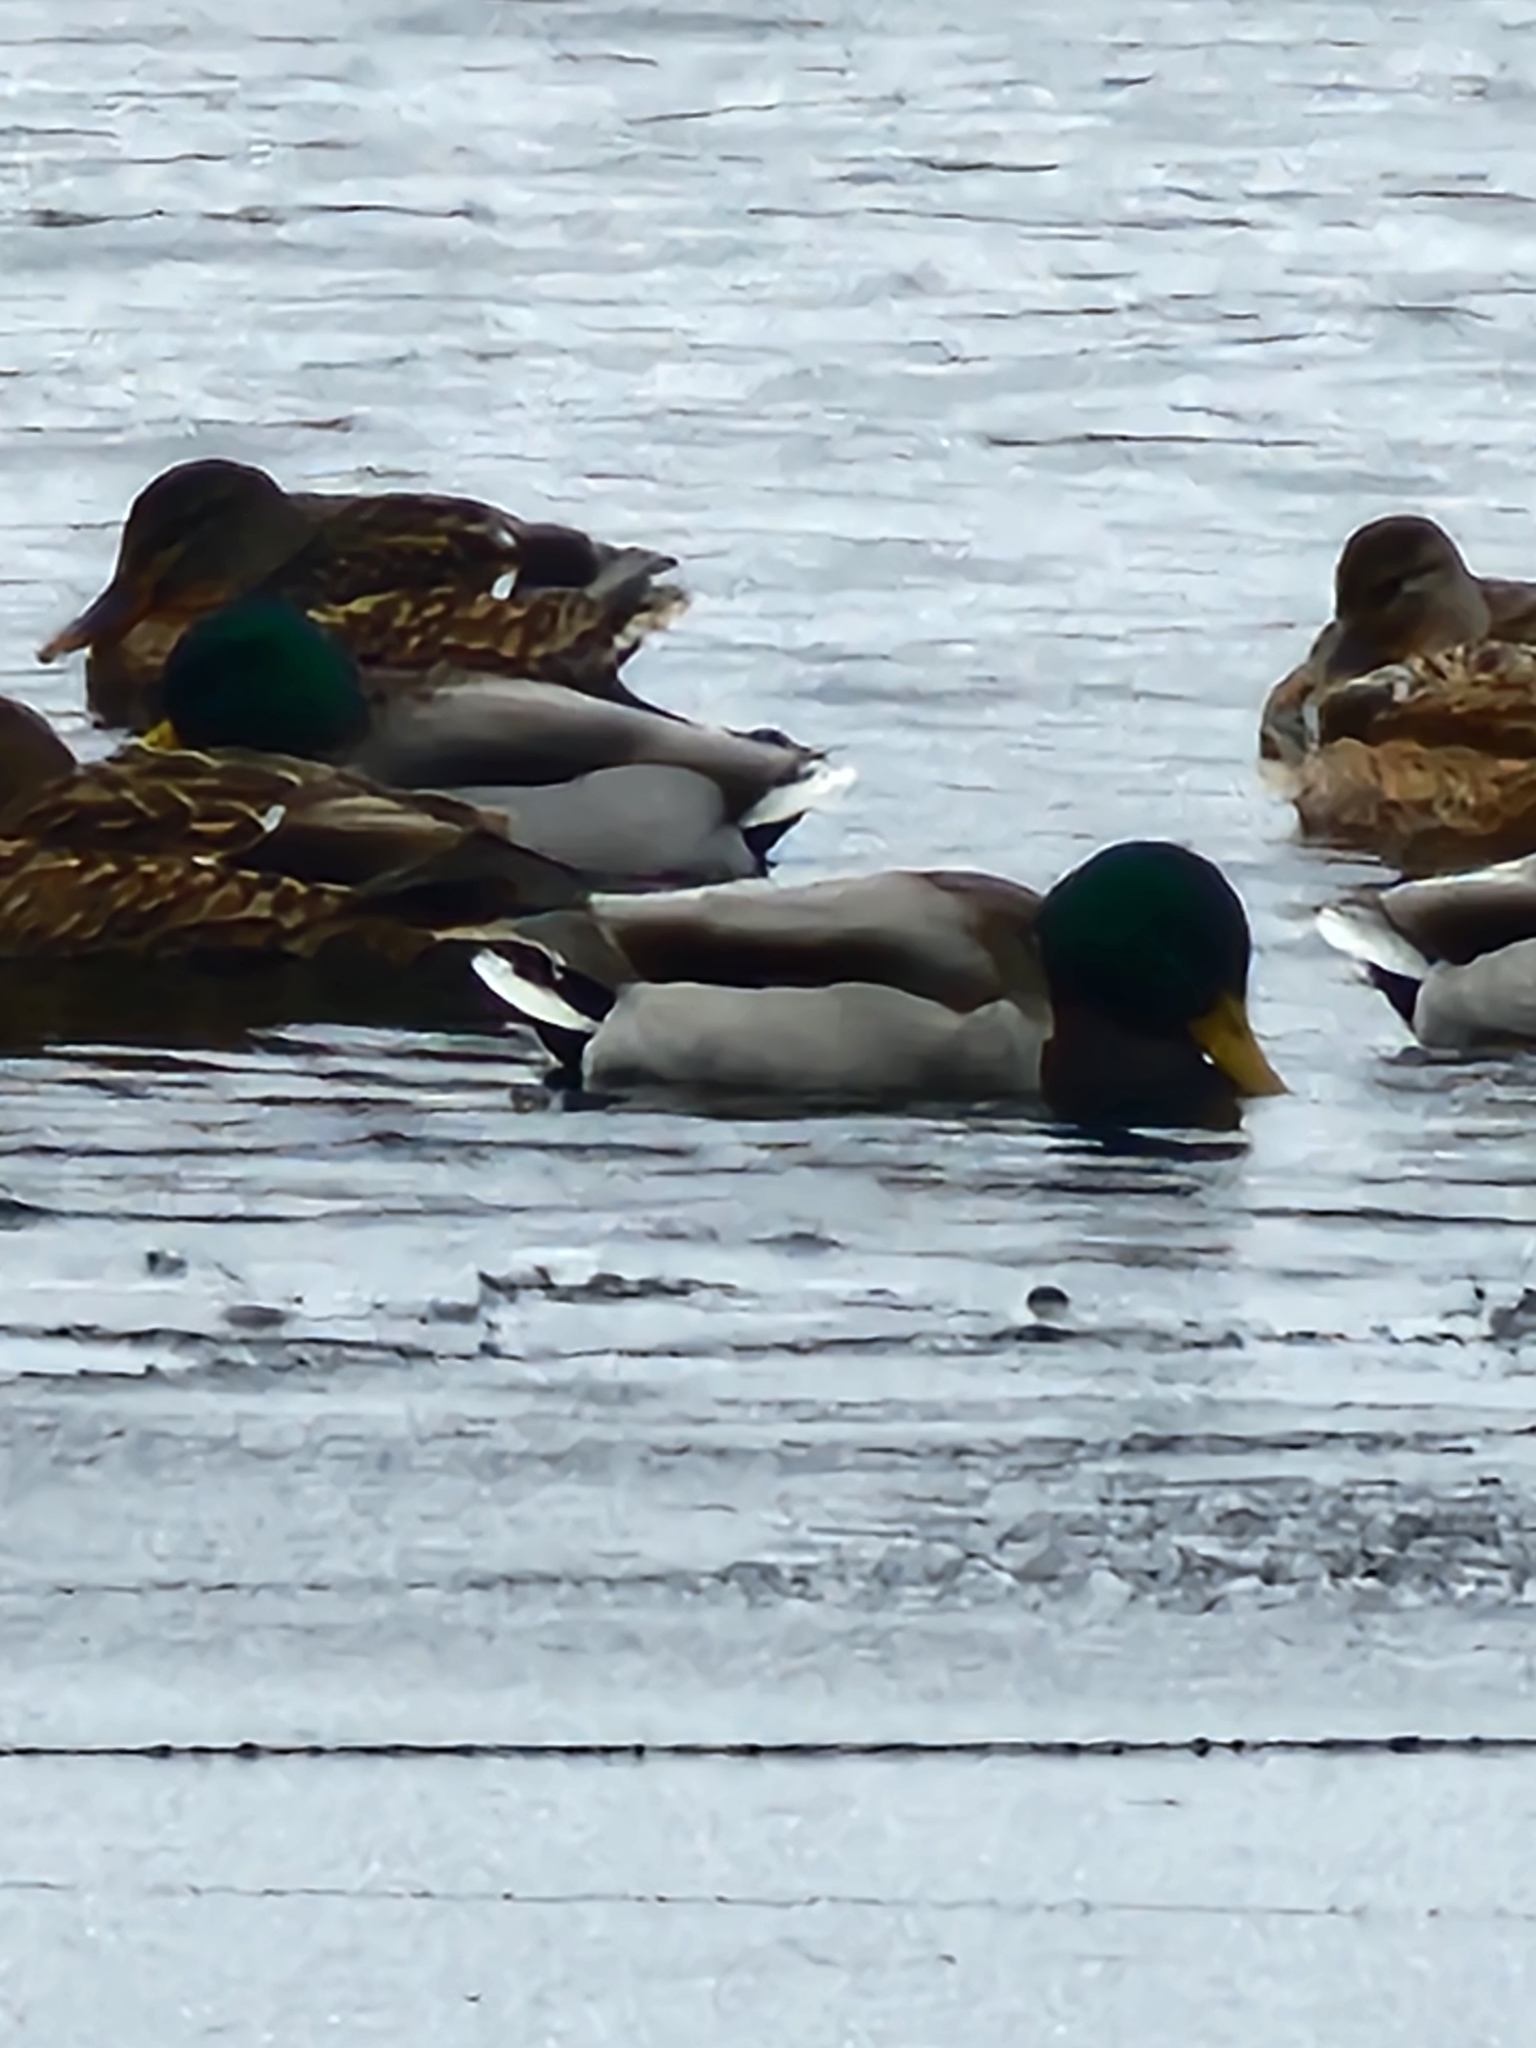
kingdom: Animalia
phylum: Chordata
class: Aves
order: Anseriformes
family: Anatidae
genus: Anas
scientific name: Anas platyrhynchos
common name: Mallard
